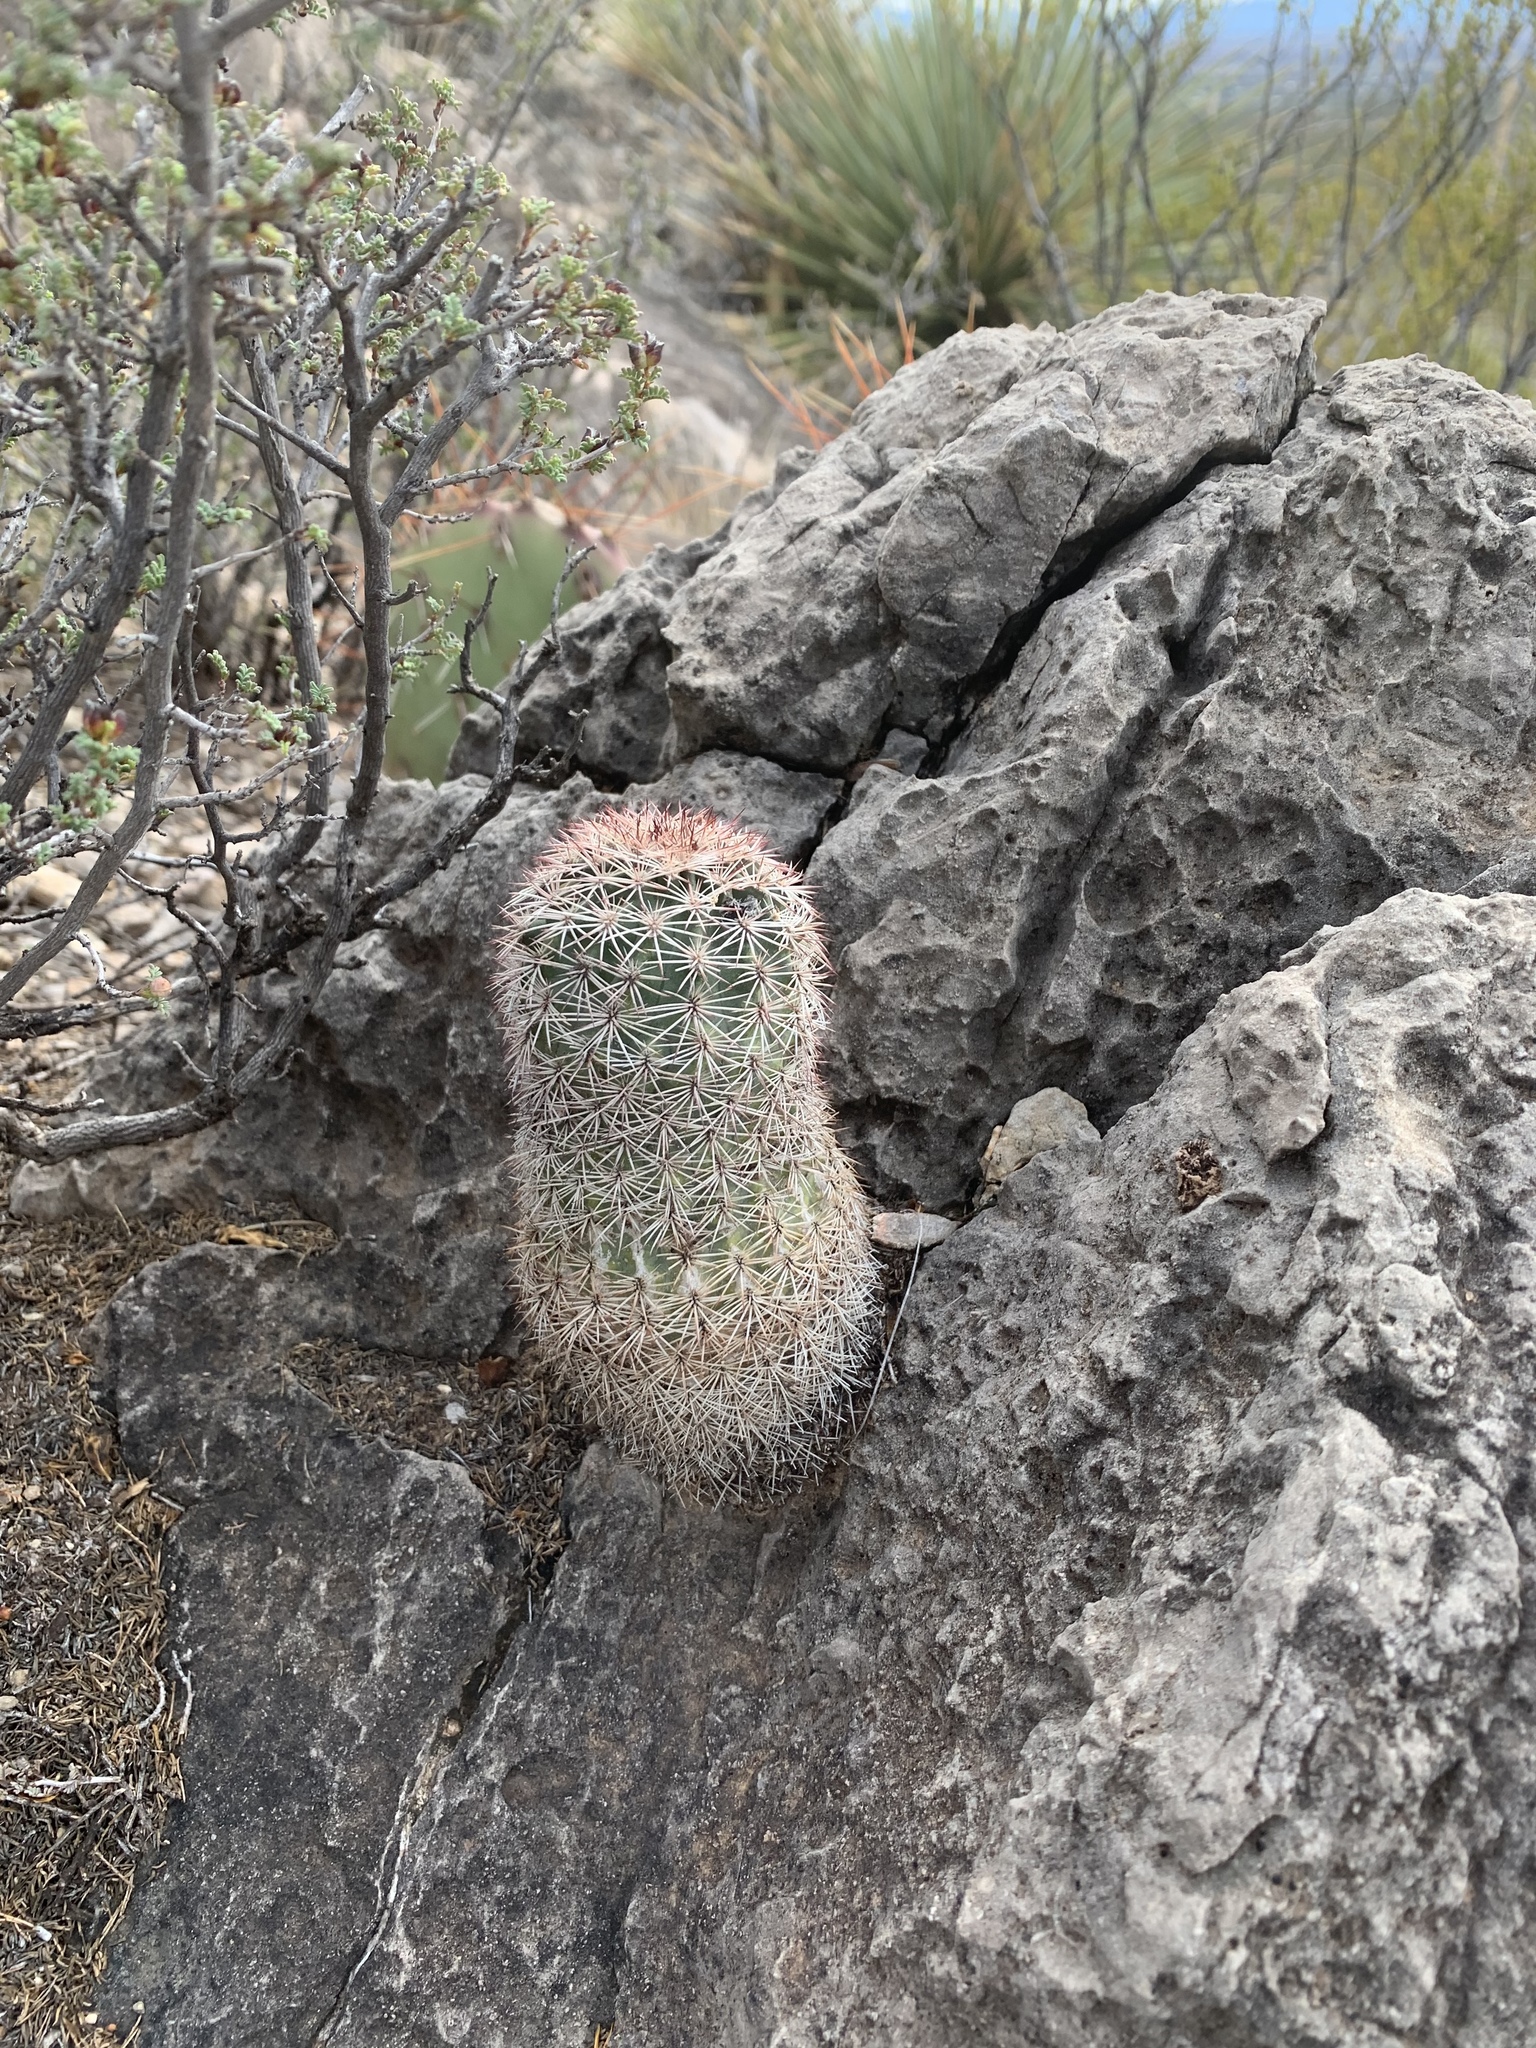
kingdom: Plantae
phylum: Tracheophyta
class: Magnoliopsida
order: Caryophyllales
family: Cactaceae
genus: Echinocereus
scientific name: Echinocereus dasyacanthus
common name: Spiny hedgehog cactus
